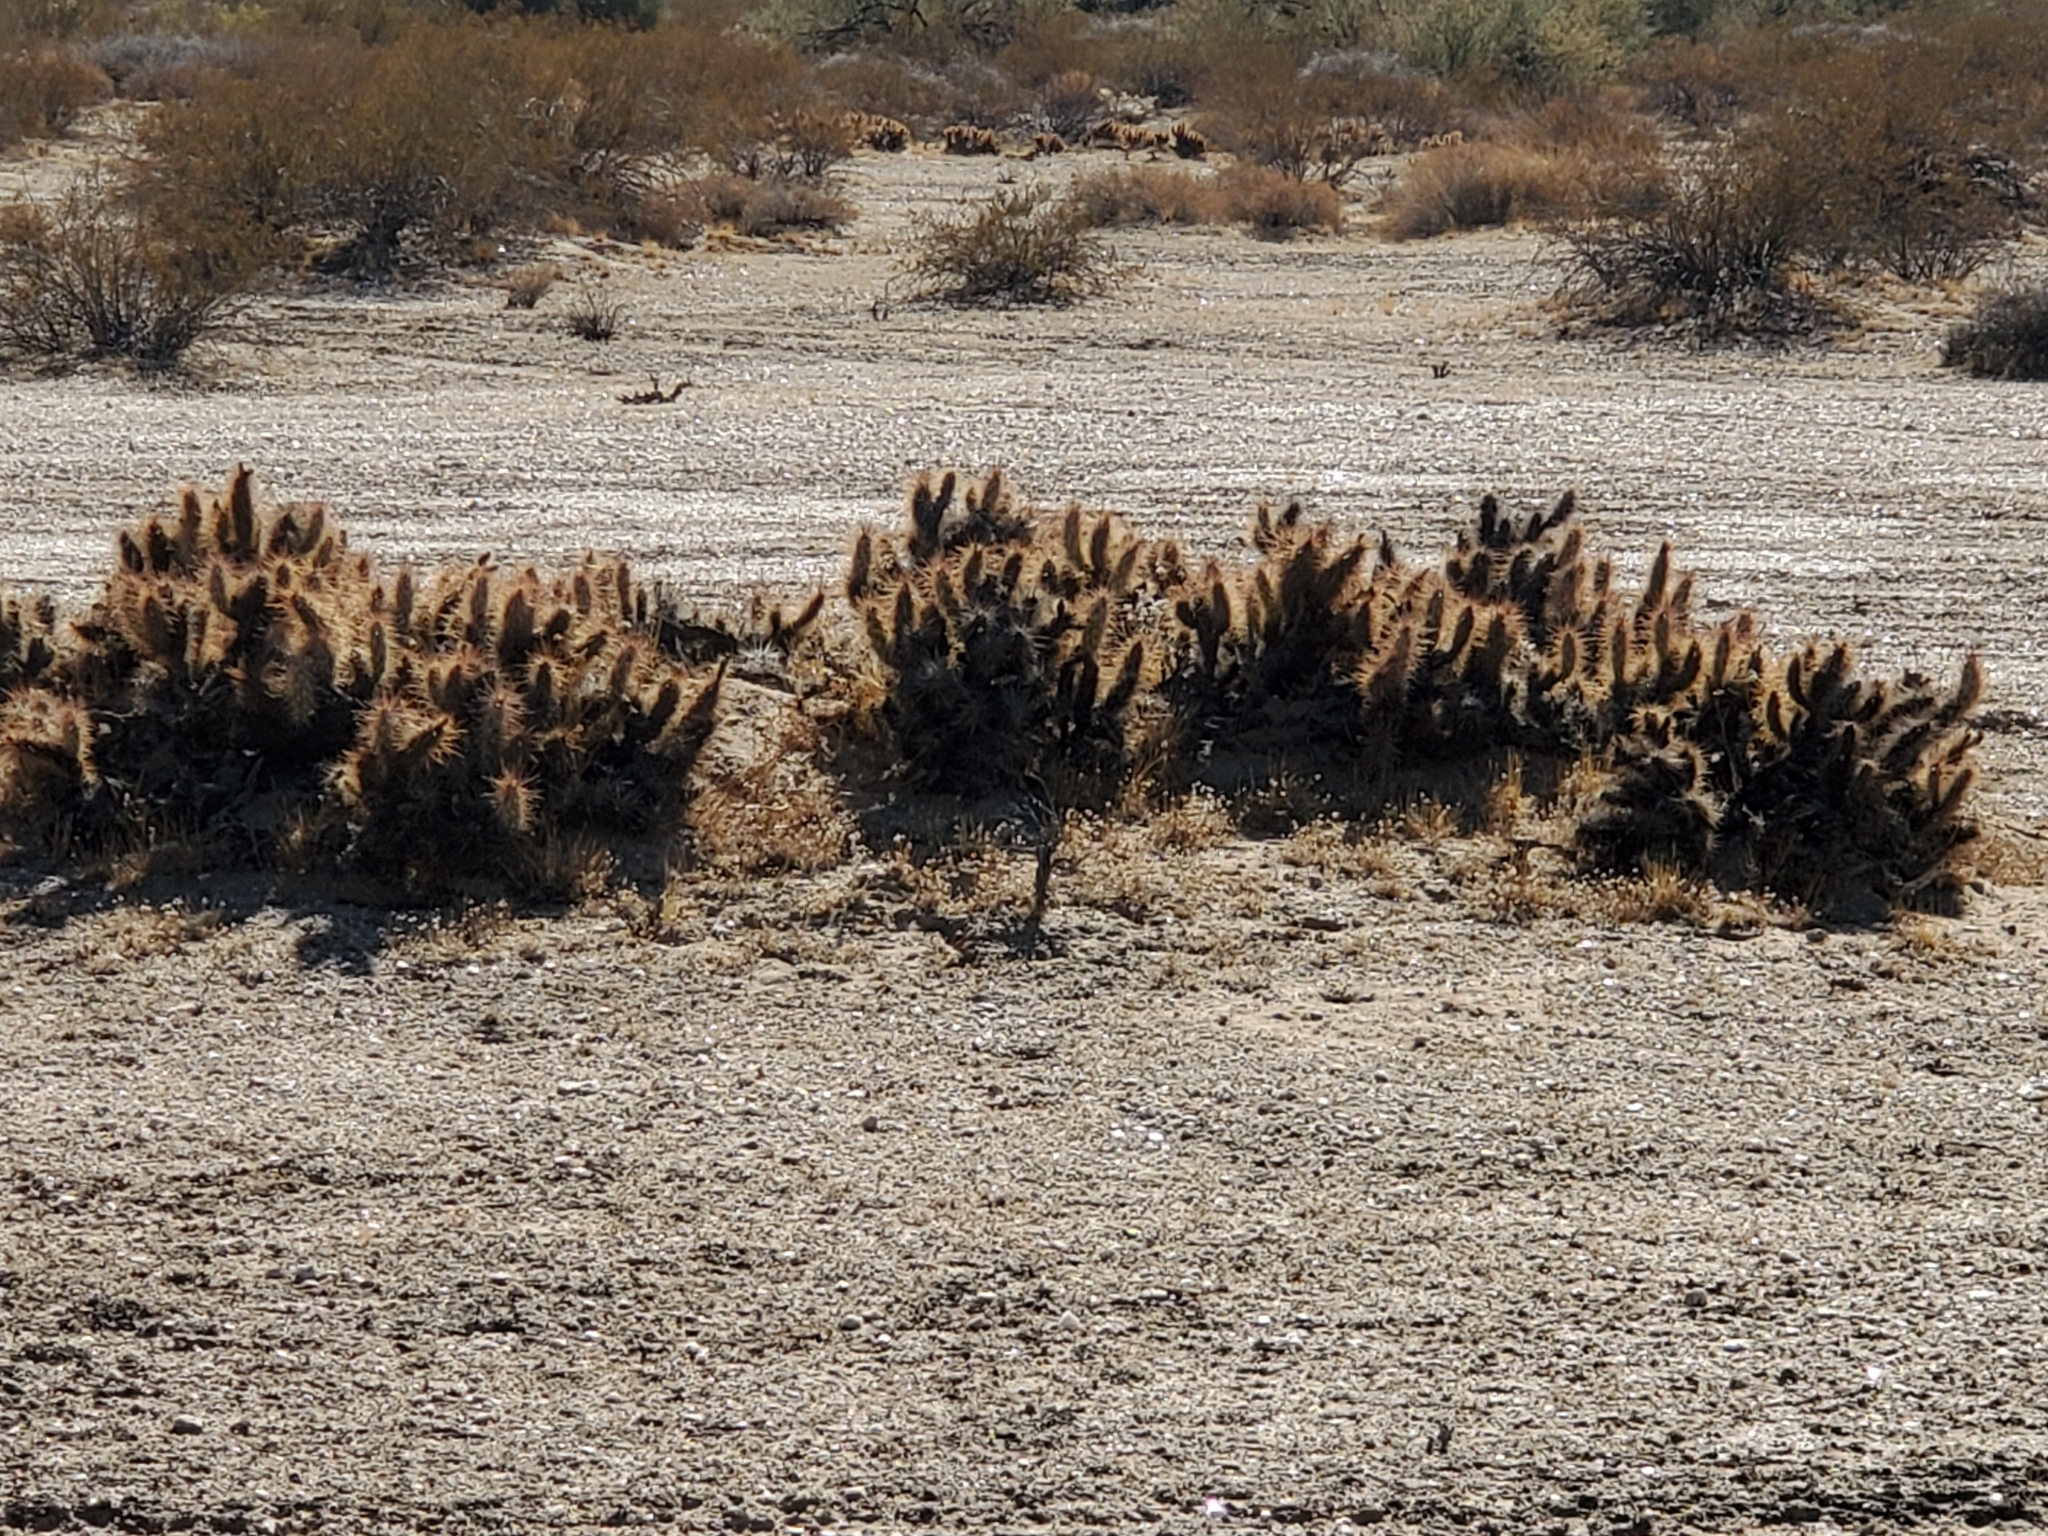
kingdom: Plantae
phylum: Tracheophyta
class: Magnoliopsida
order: Caryophyllales
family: Cactaceae
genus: Grusonia
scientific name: Grusonia kunzei
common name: Wright's club cholla
